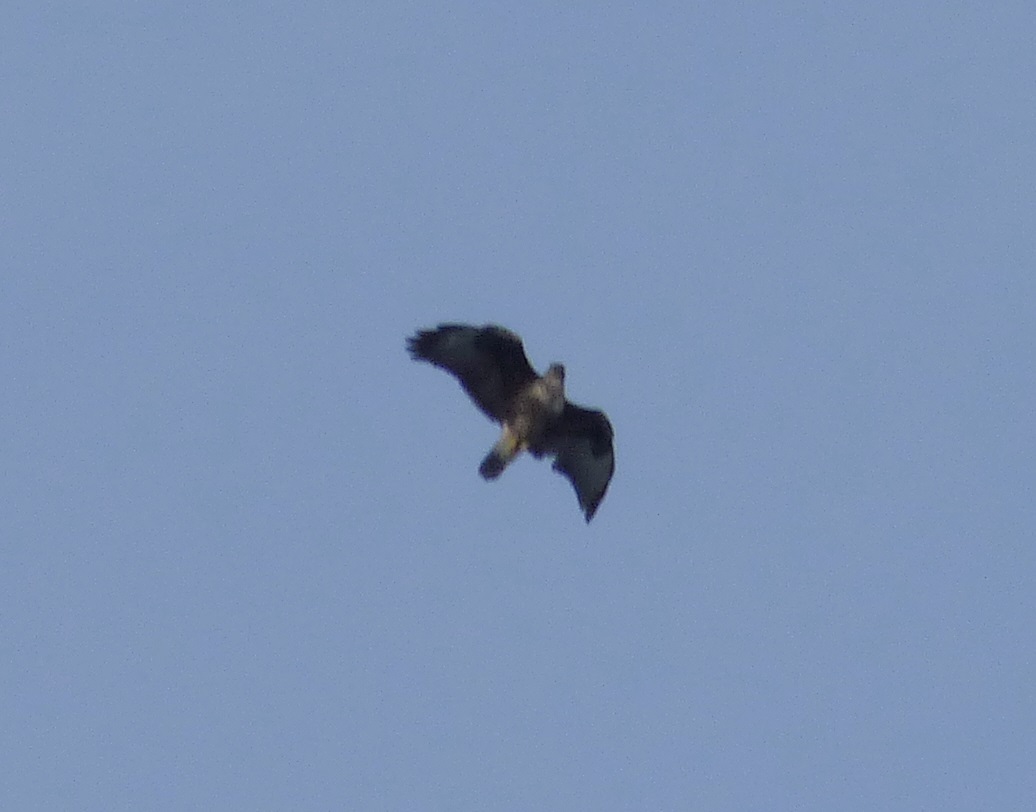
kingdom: Animalia
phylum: Chordata
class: Aves
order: Accipitriformes
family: Accipitridae
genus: Buteo
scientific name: Buteo buteo
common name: Common buzzard
